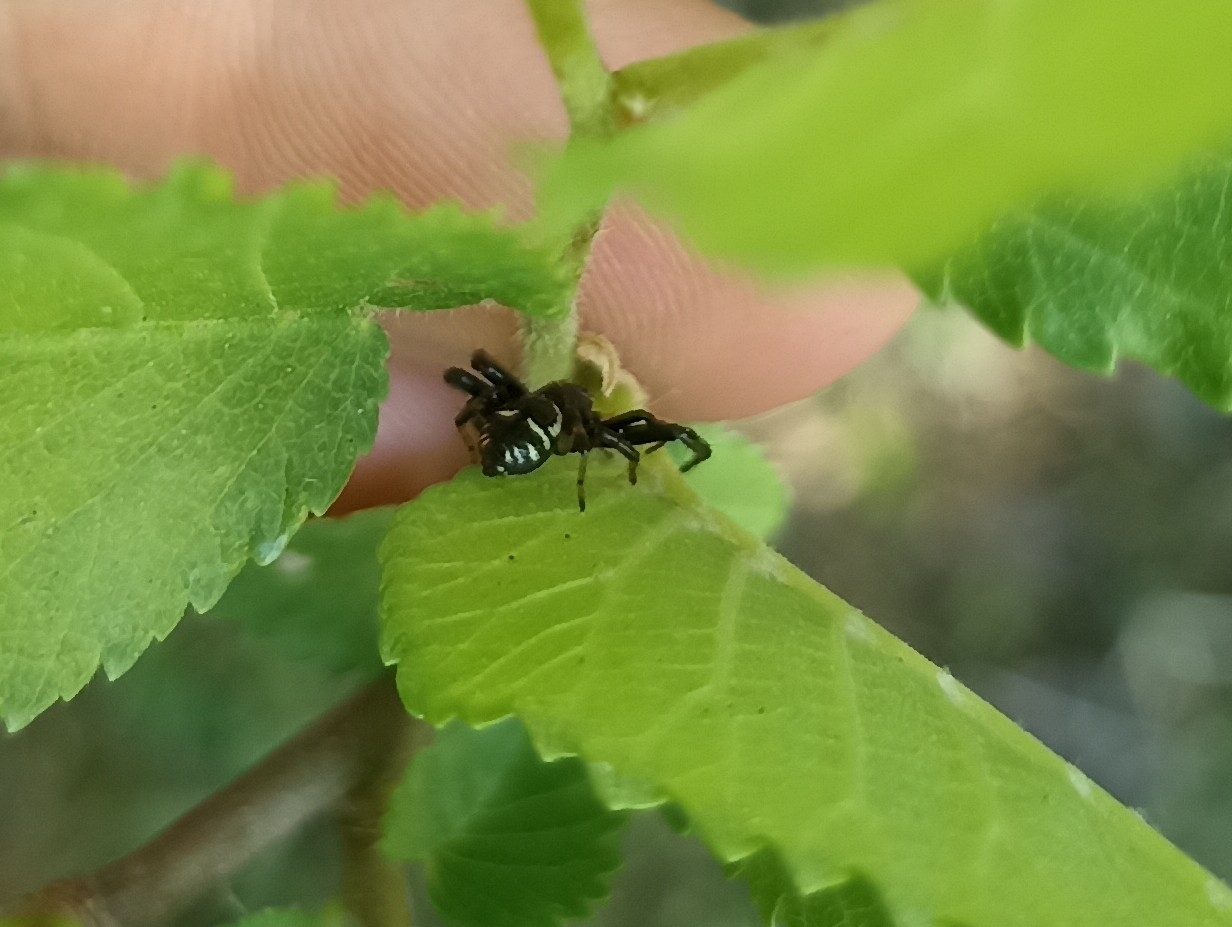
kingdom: Animalia
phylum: Arthropoda
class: Arachnida
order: Araneae
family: Thomisidae
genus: Synema
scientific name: Synema globosum
